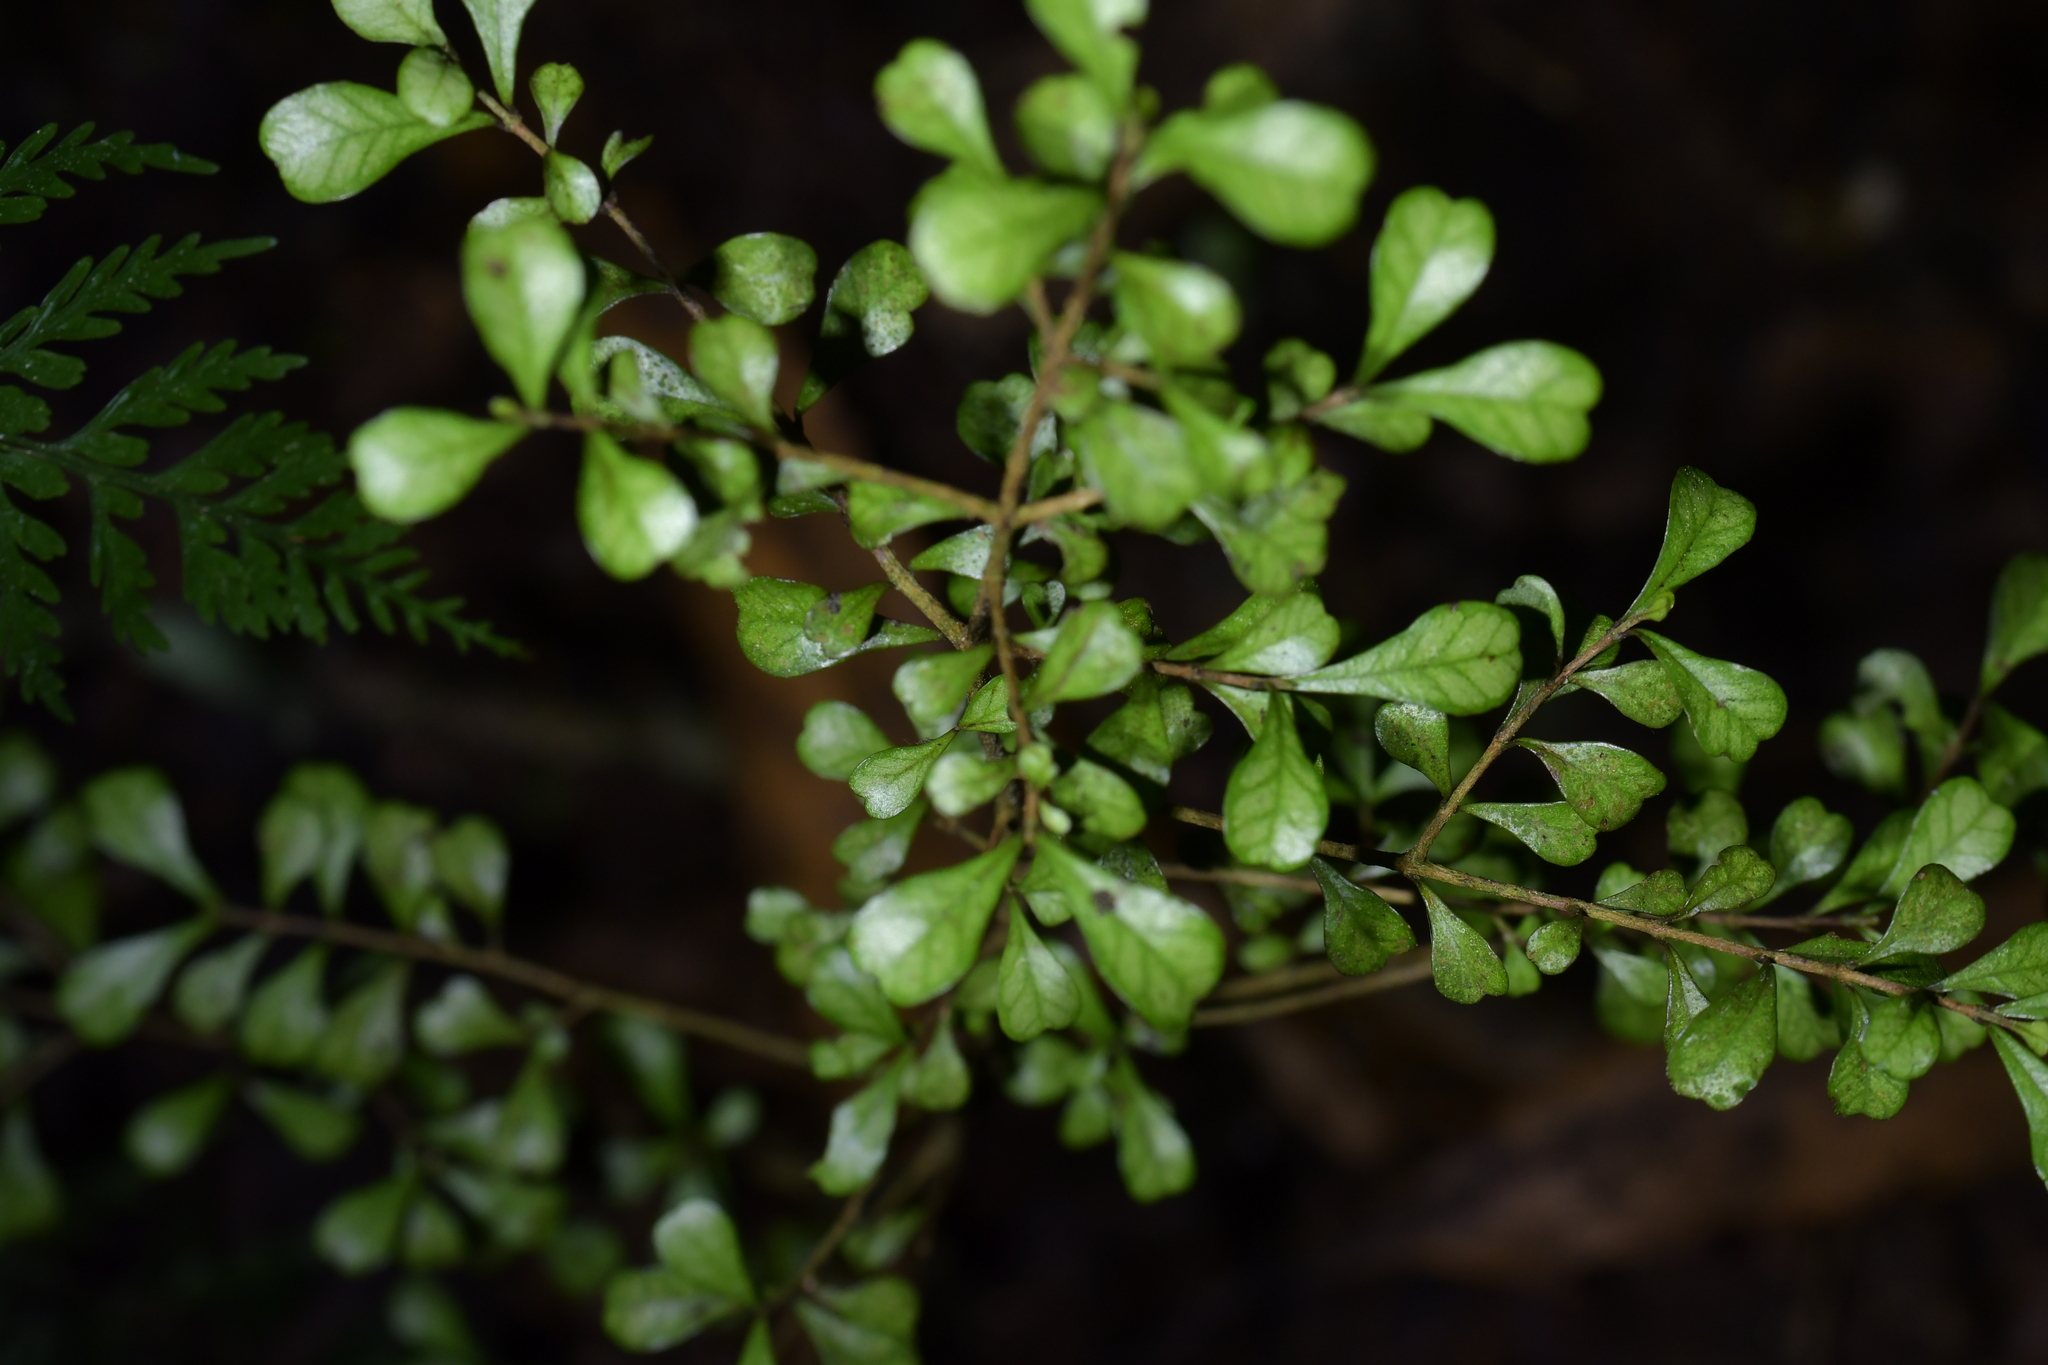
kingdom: Plantae
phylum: Tracheophyta
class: Magnoliopsida
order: Myrtales
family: Myrtaceae
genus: Lophomyrtus
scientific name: Lophomyrtus obcordata
